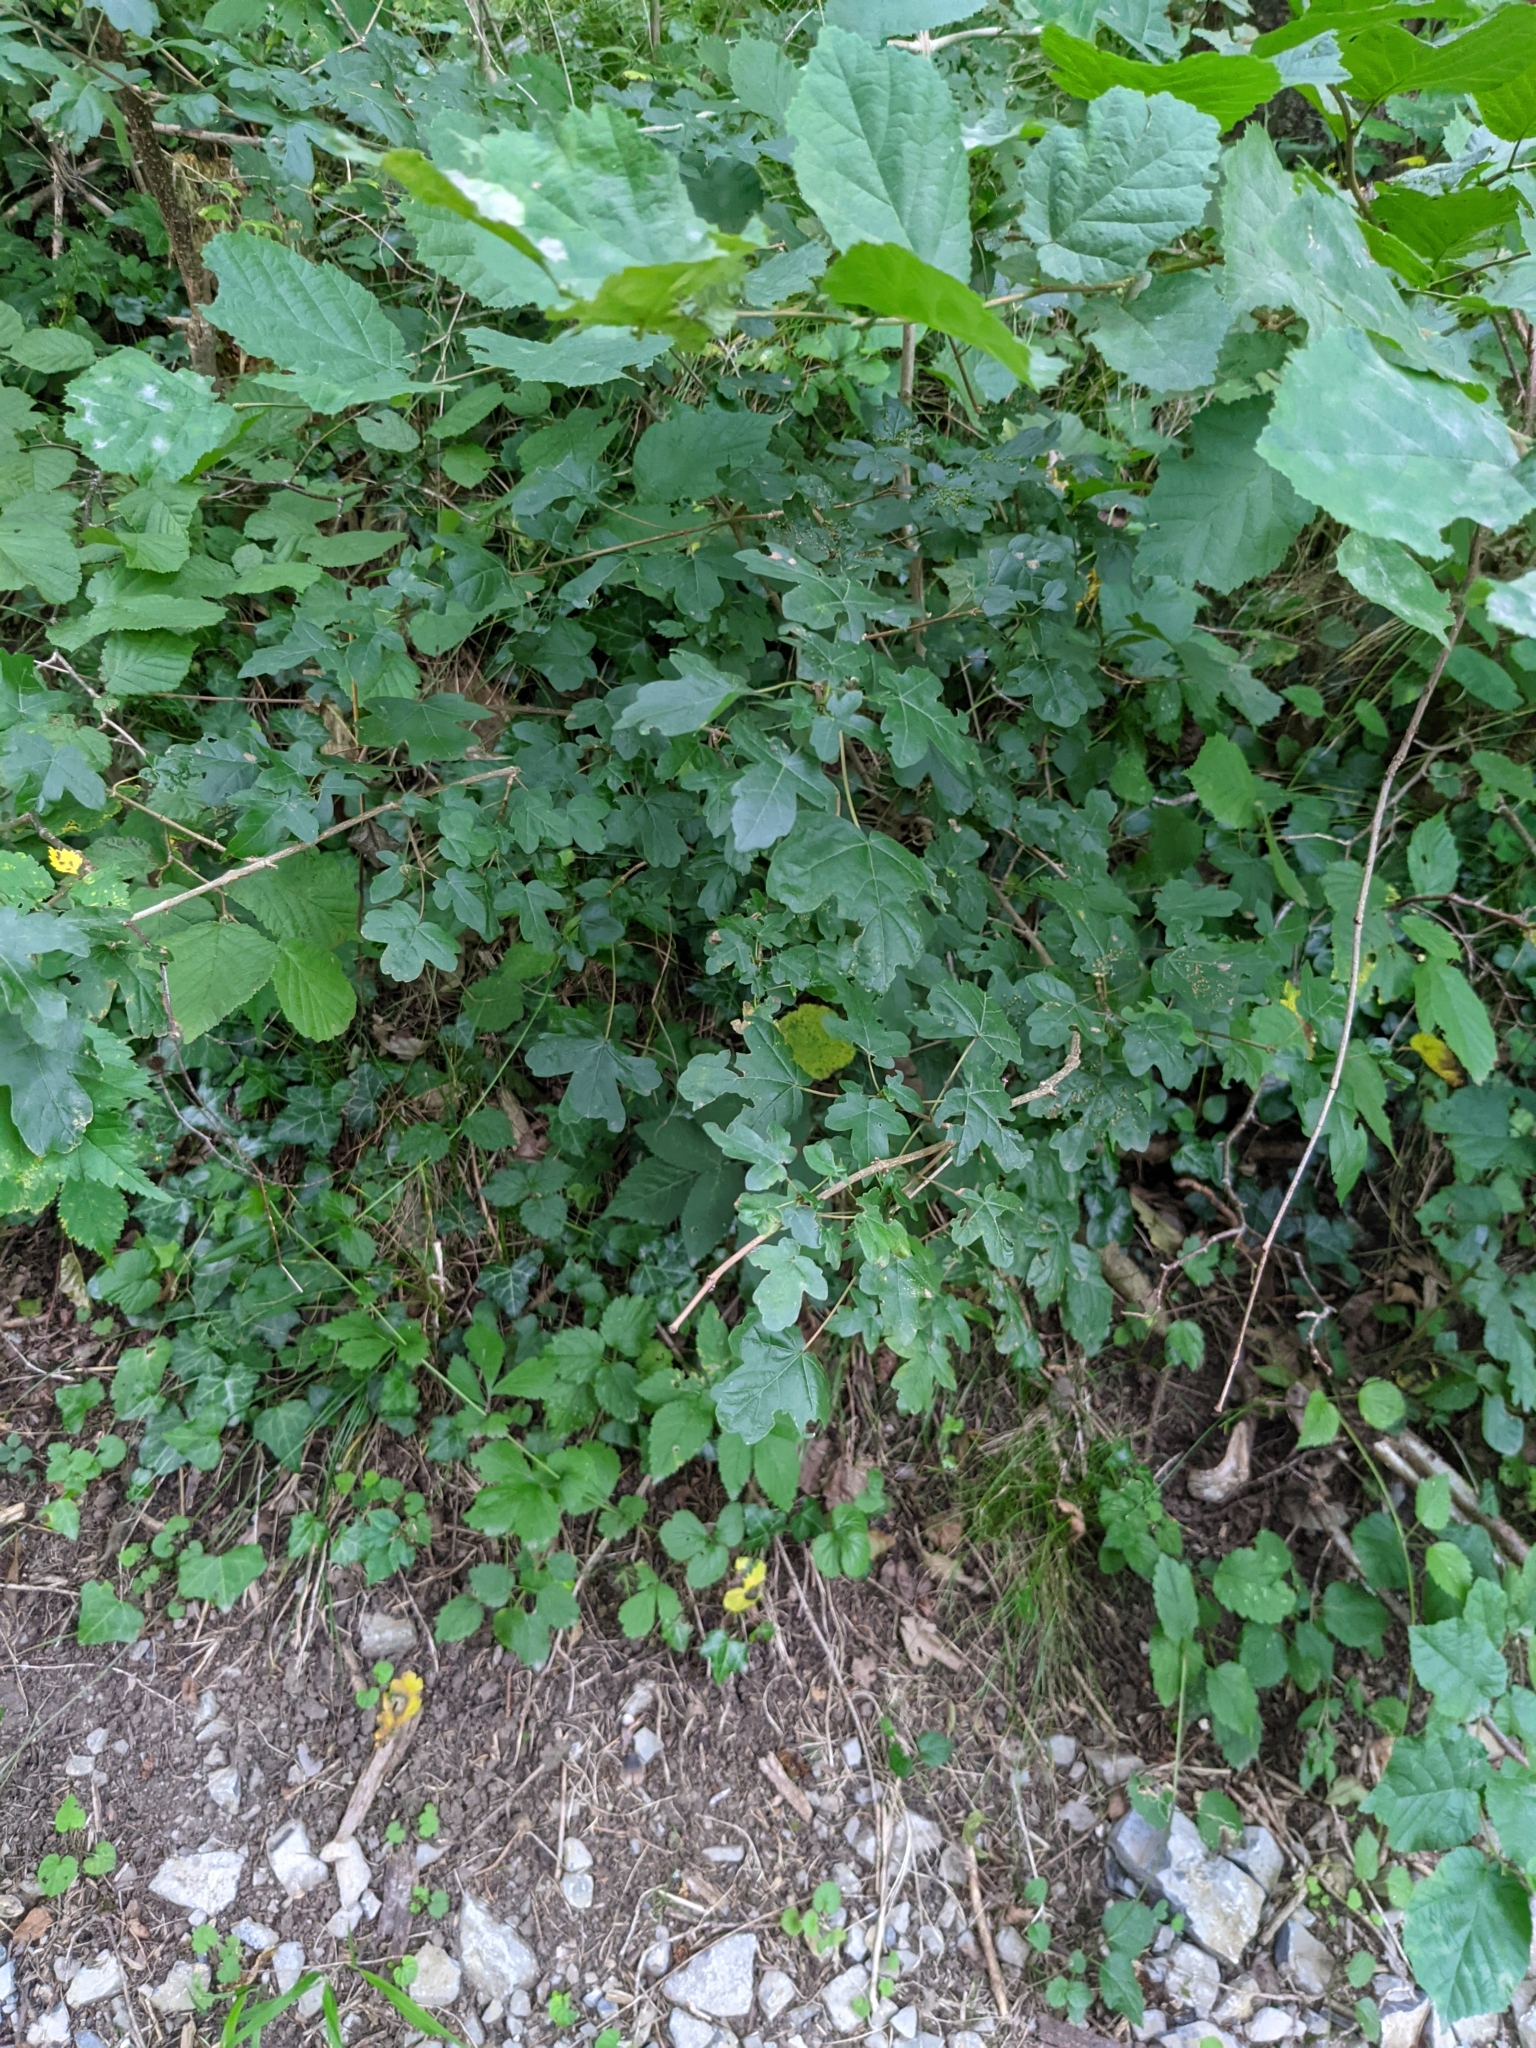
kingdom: Plantae
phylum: Tracheophyta
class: Magnoliopsida
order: Sapindales
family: Sapindaceae
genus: Acer
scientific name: Acer campestre
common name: Field maple
